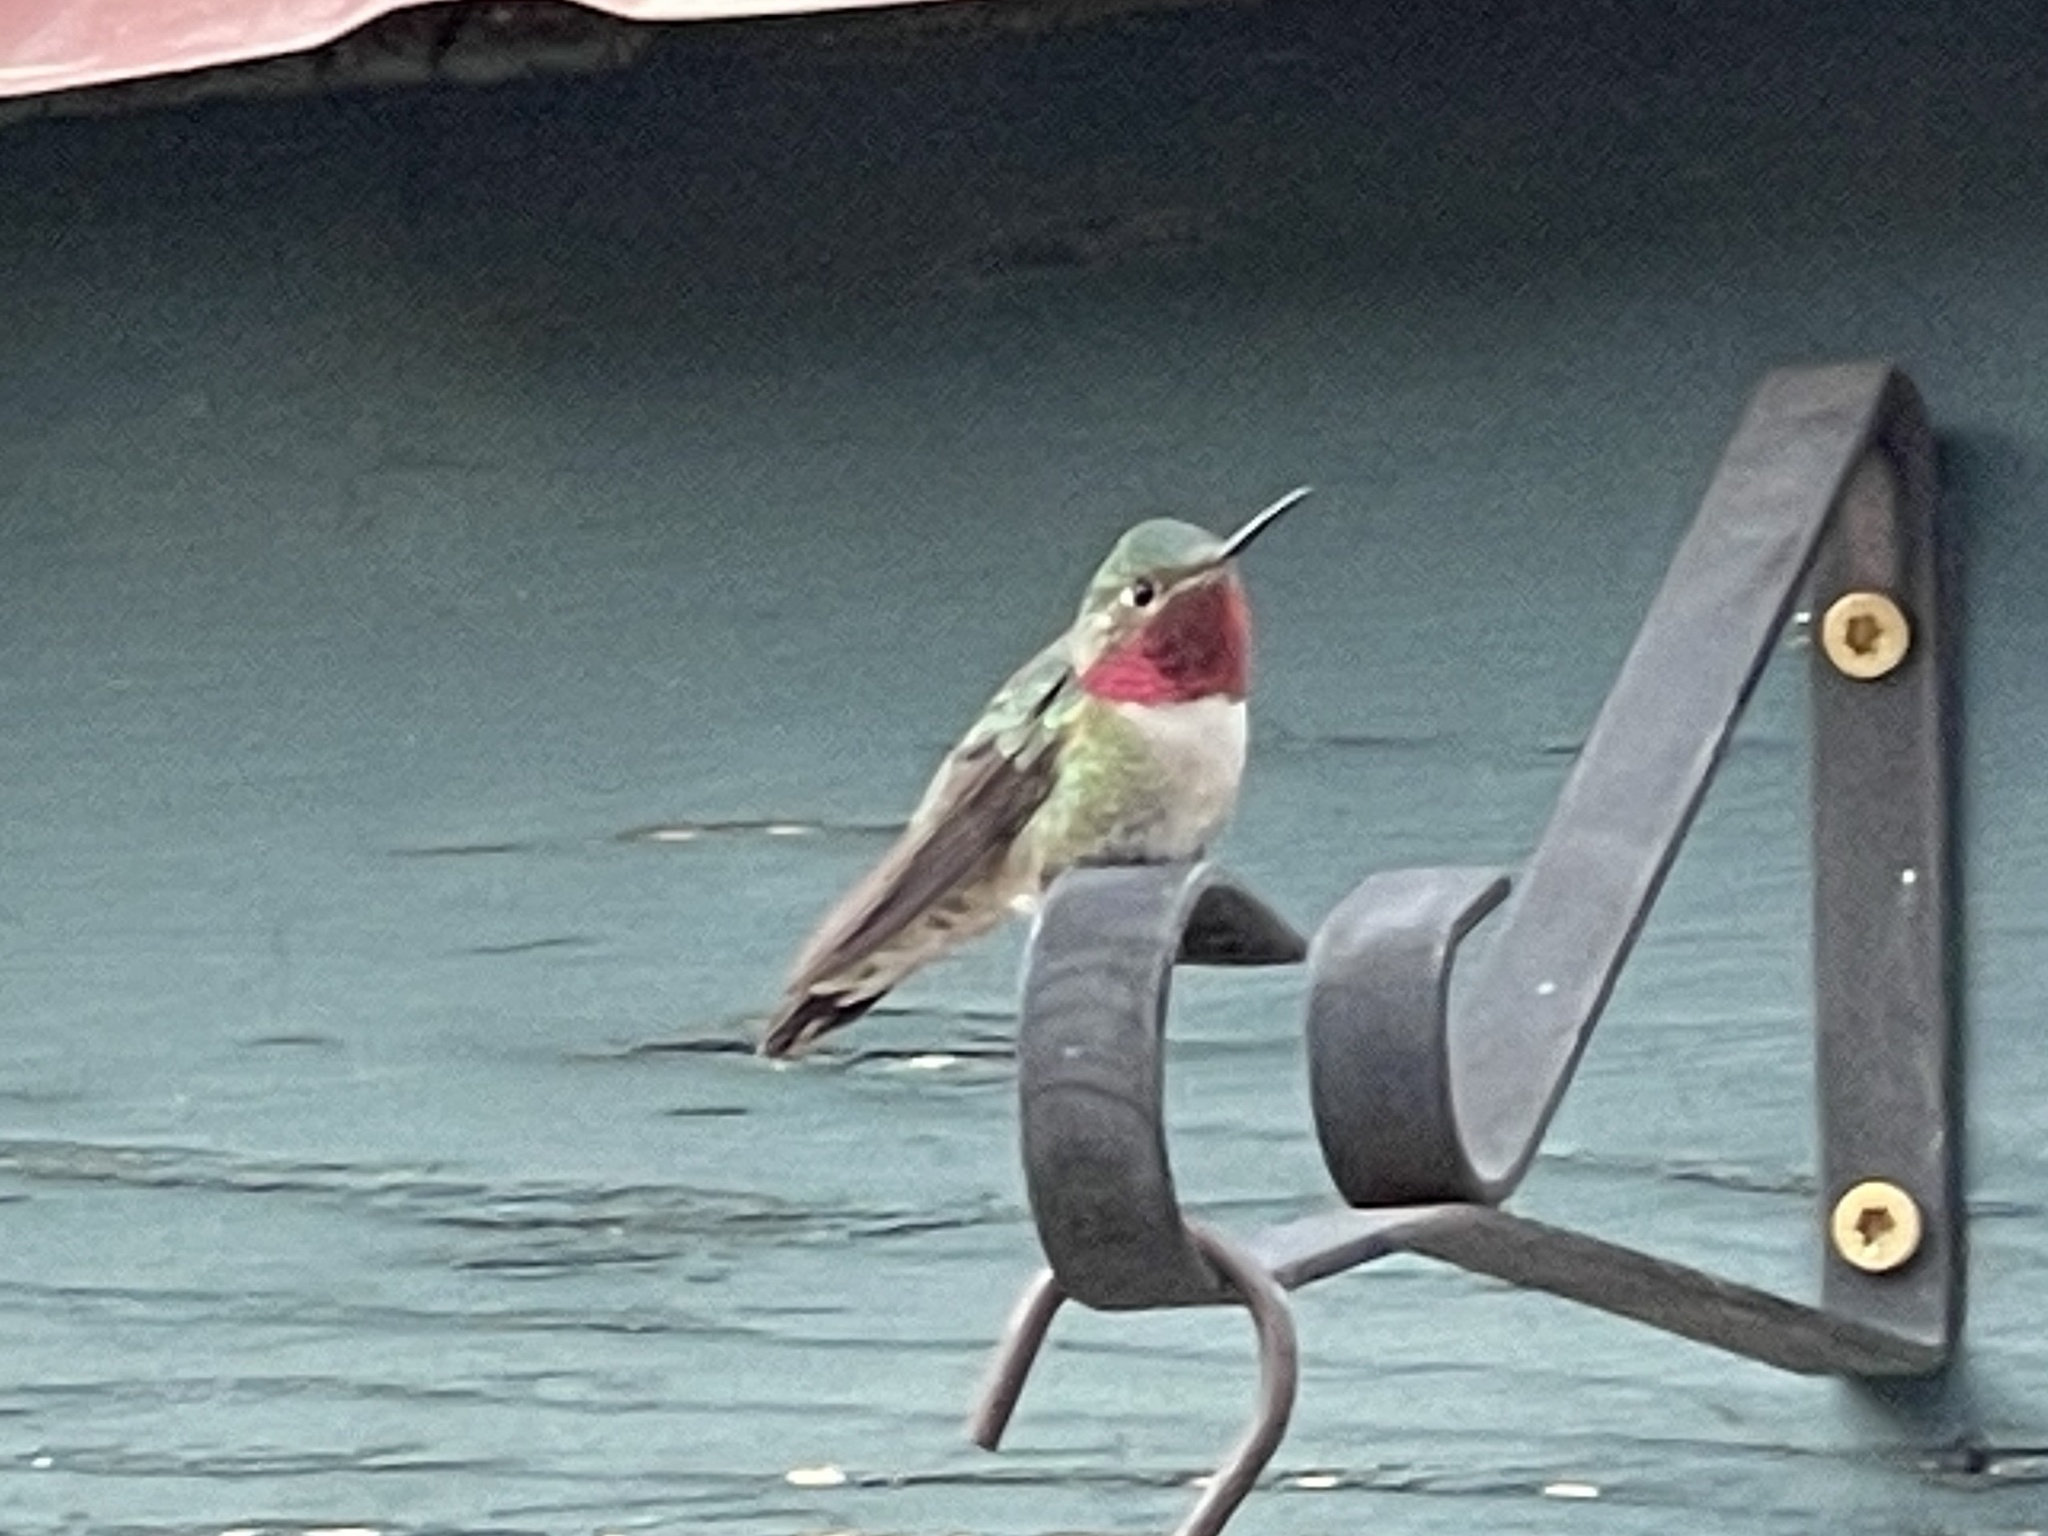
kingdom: Animalia
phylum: Chordata
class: Aves
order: Apodiformes
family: Trochilidae
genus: Selasphorus
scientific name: Selasphorus platycercus
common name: Broad-tailed hummingbird
